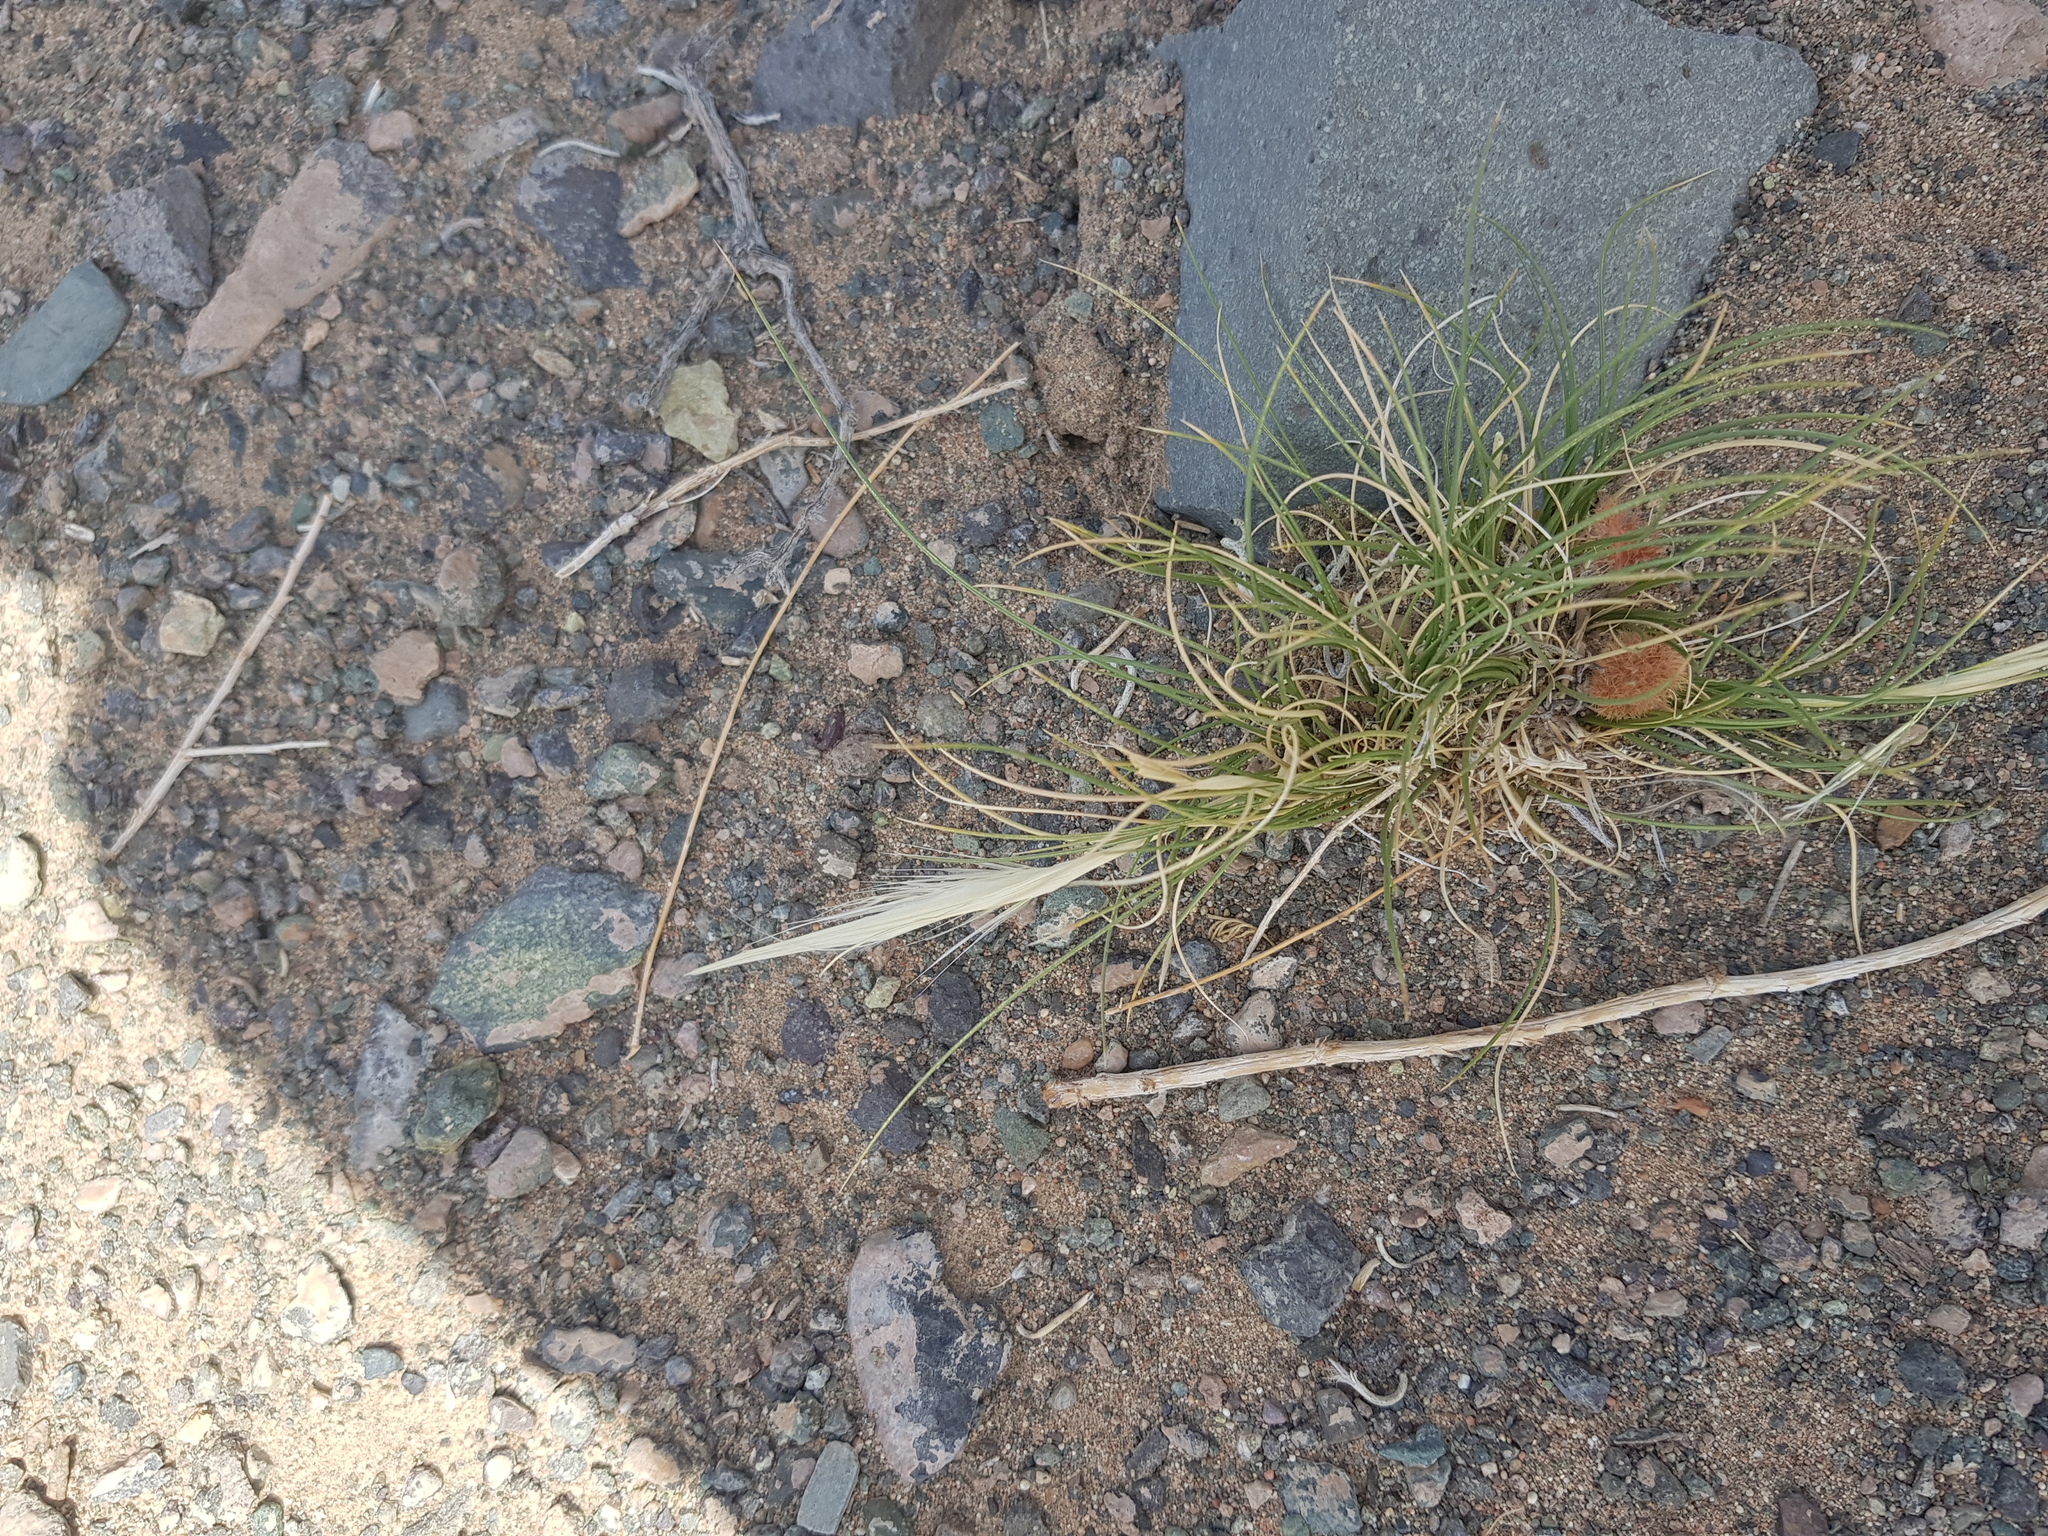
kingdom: Plantae
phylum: Tracheophyta
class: Liliopsida
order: Poales
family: Poaceae
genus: Stipa
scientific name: Stipa glareosa
